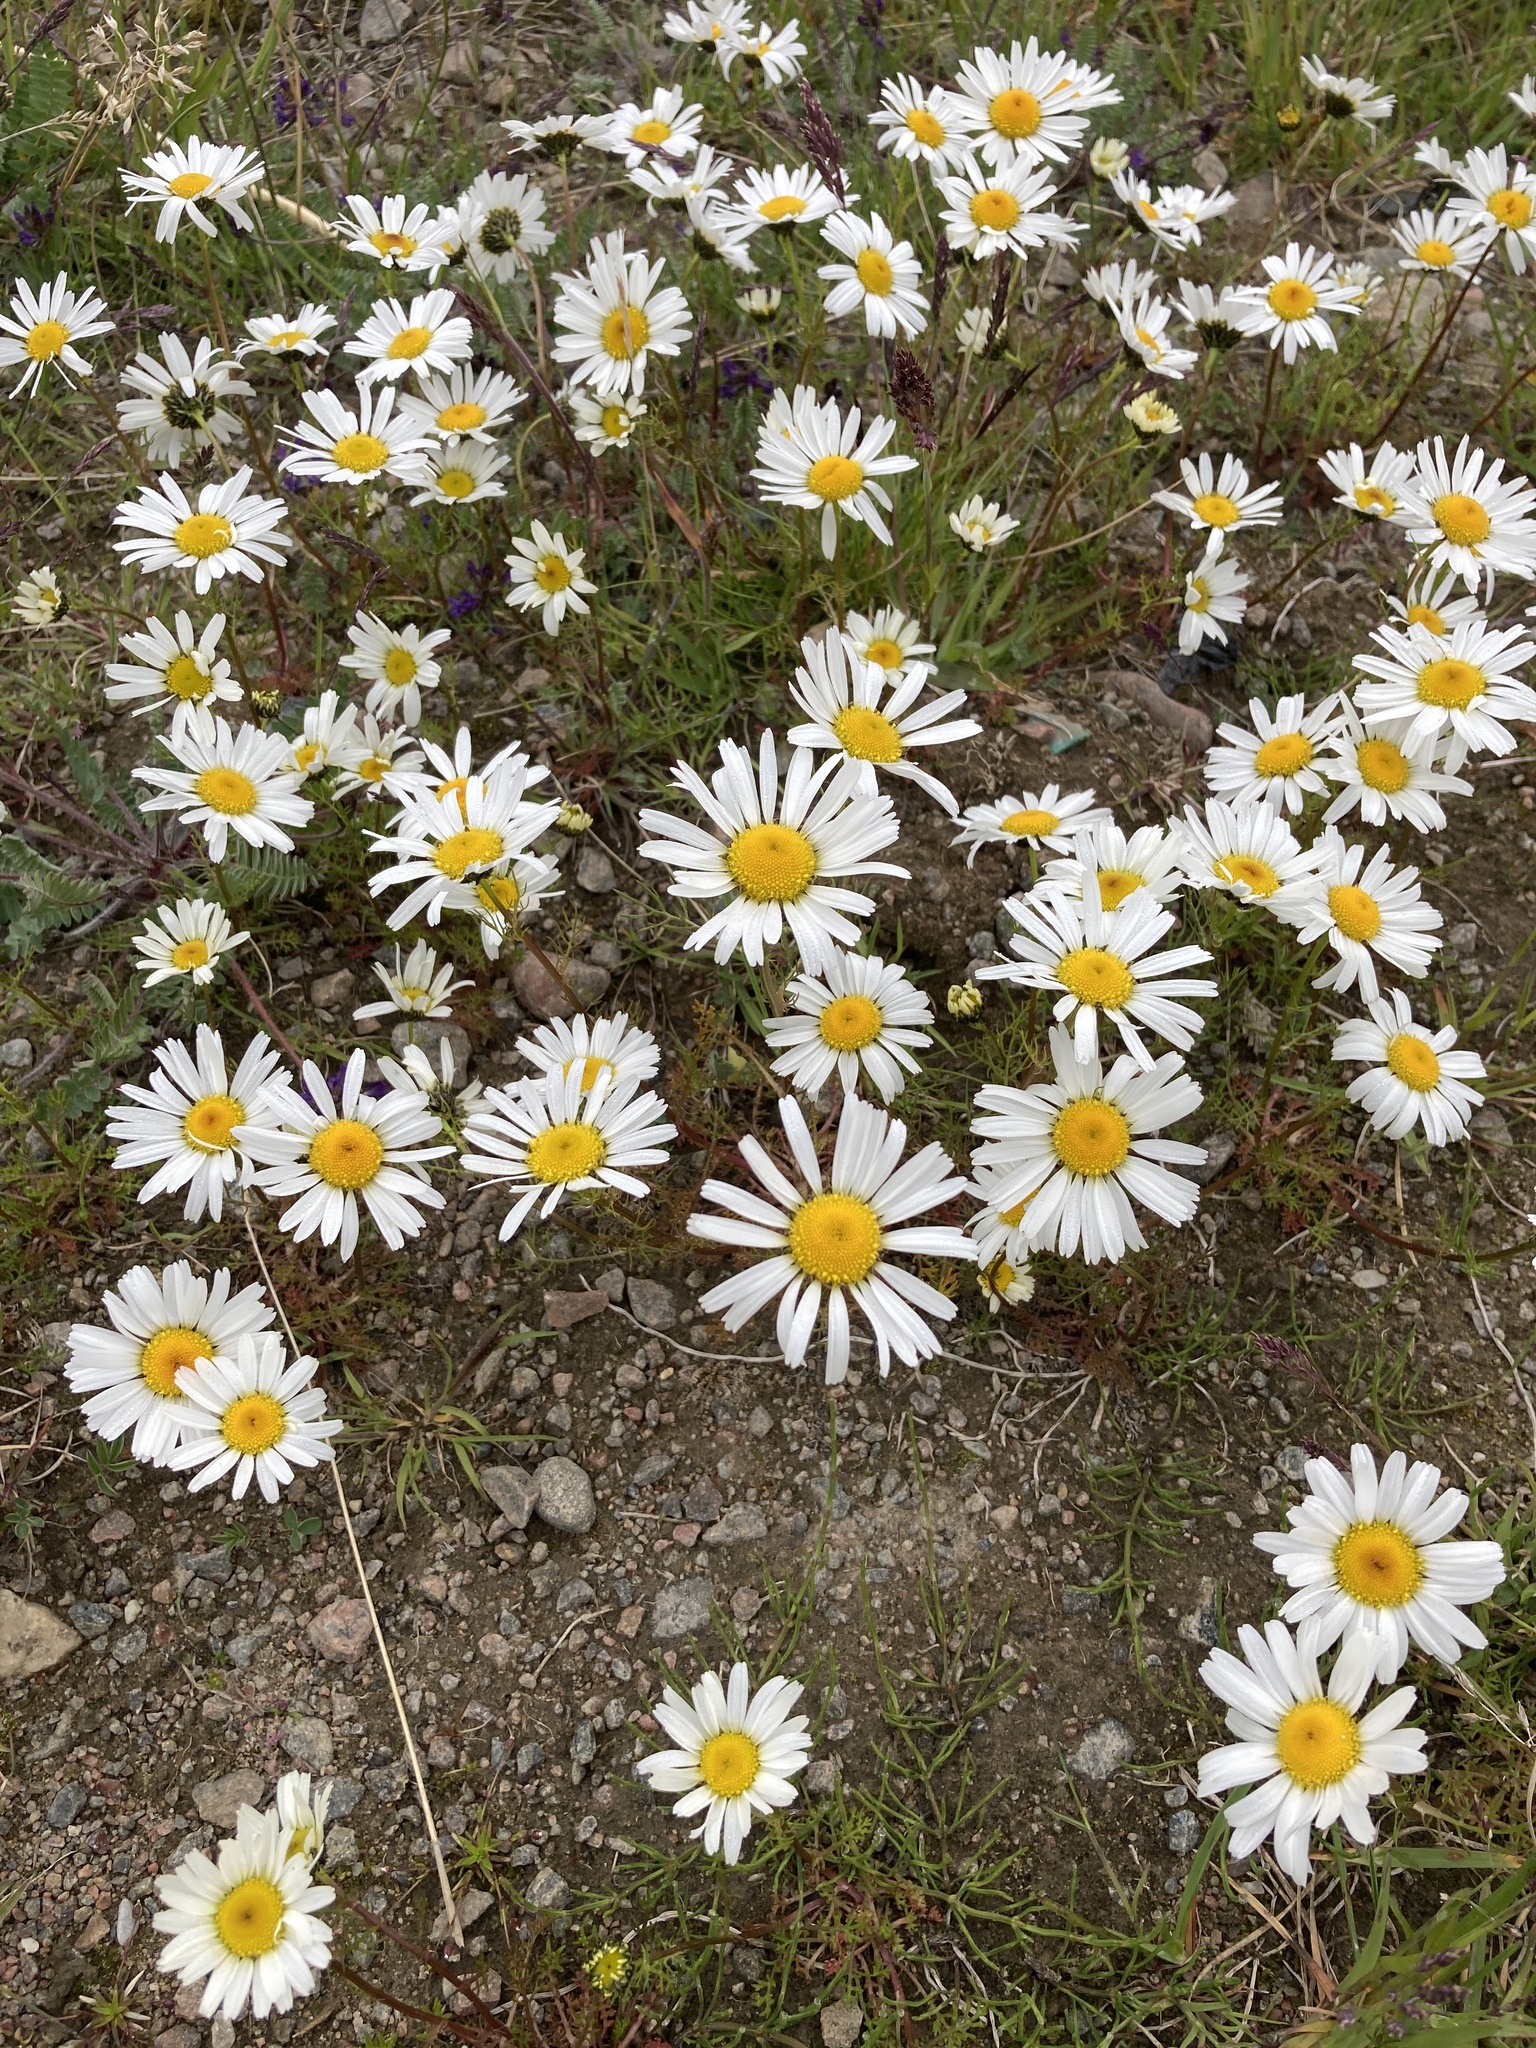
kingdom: Plantae
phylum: Tracheophyta
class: Magnoliopsida
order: Asterales
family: Asteraceae
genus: Tripleurospermum
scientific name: Tripleurospermum hookeri
